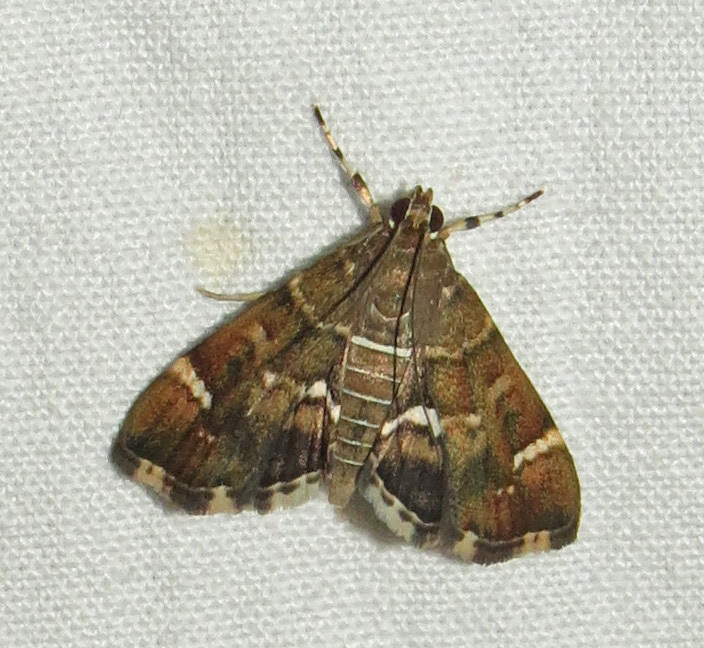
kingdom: Animalia
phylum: Arthropoda
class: Insecta
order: Lepidoptera
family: Crambidae
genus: Hymenia
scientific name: Hymenia perspectalis
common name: Spotted beet webworm
